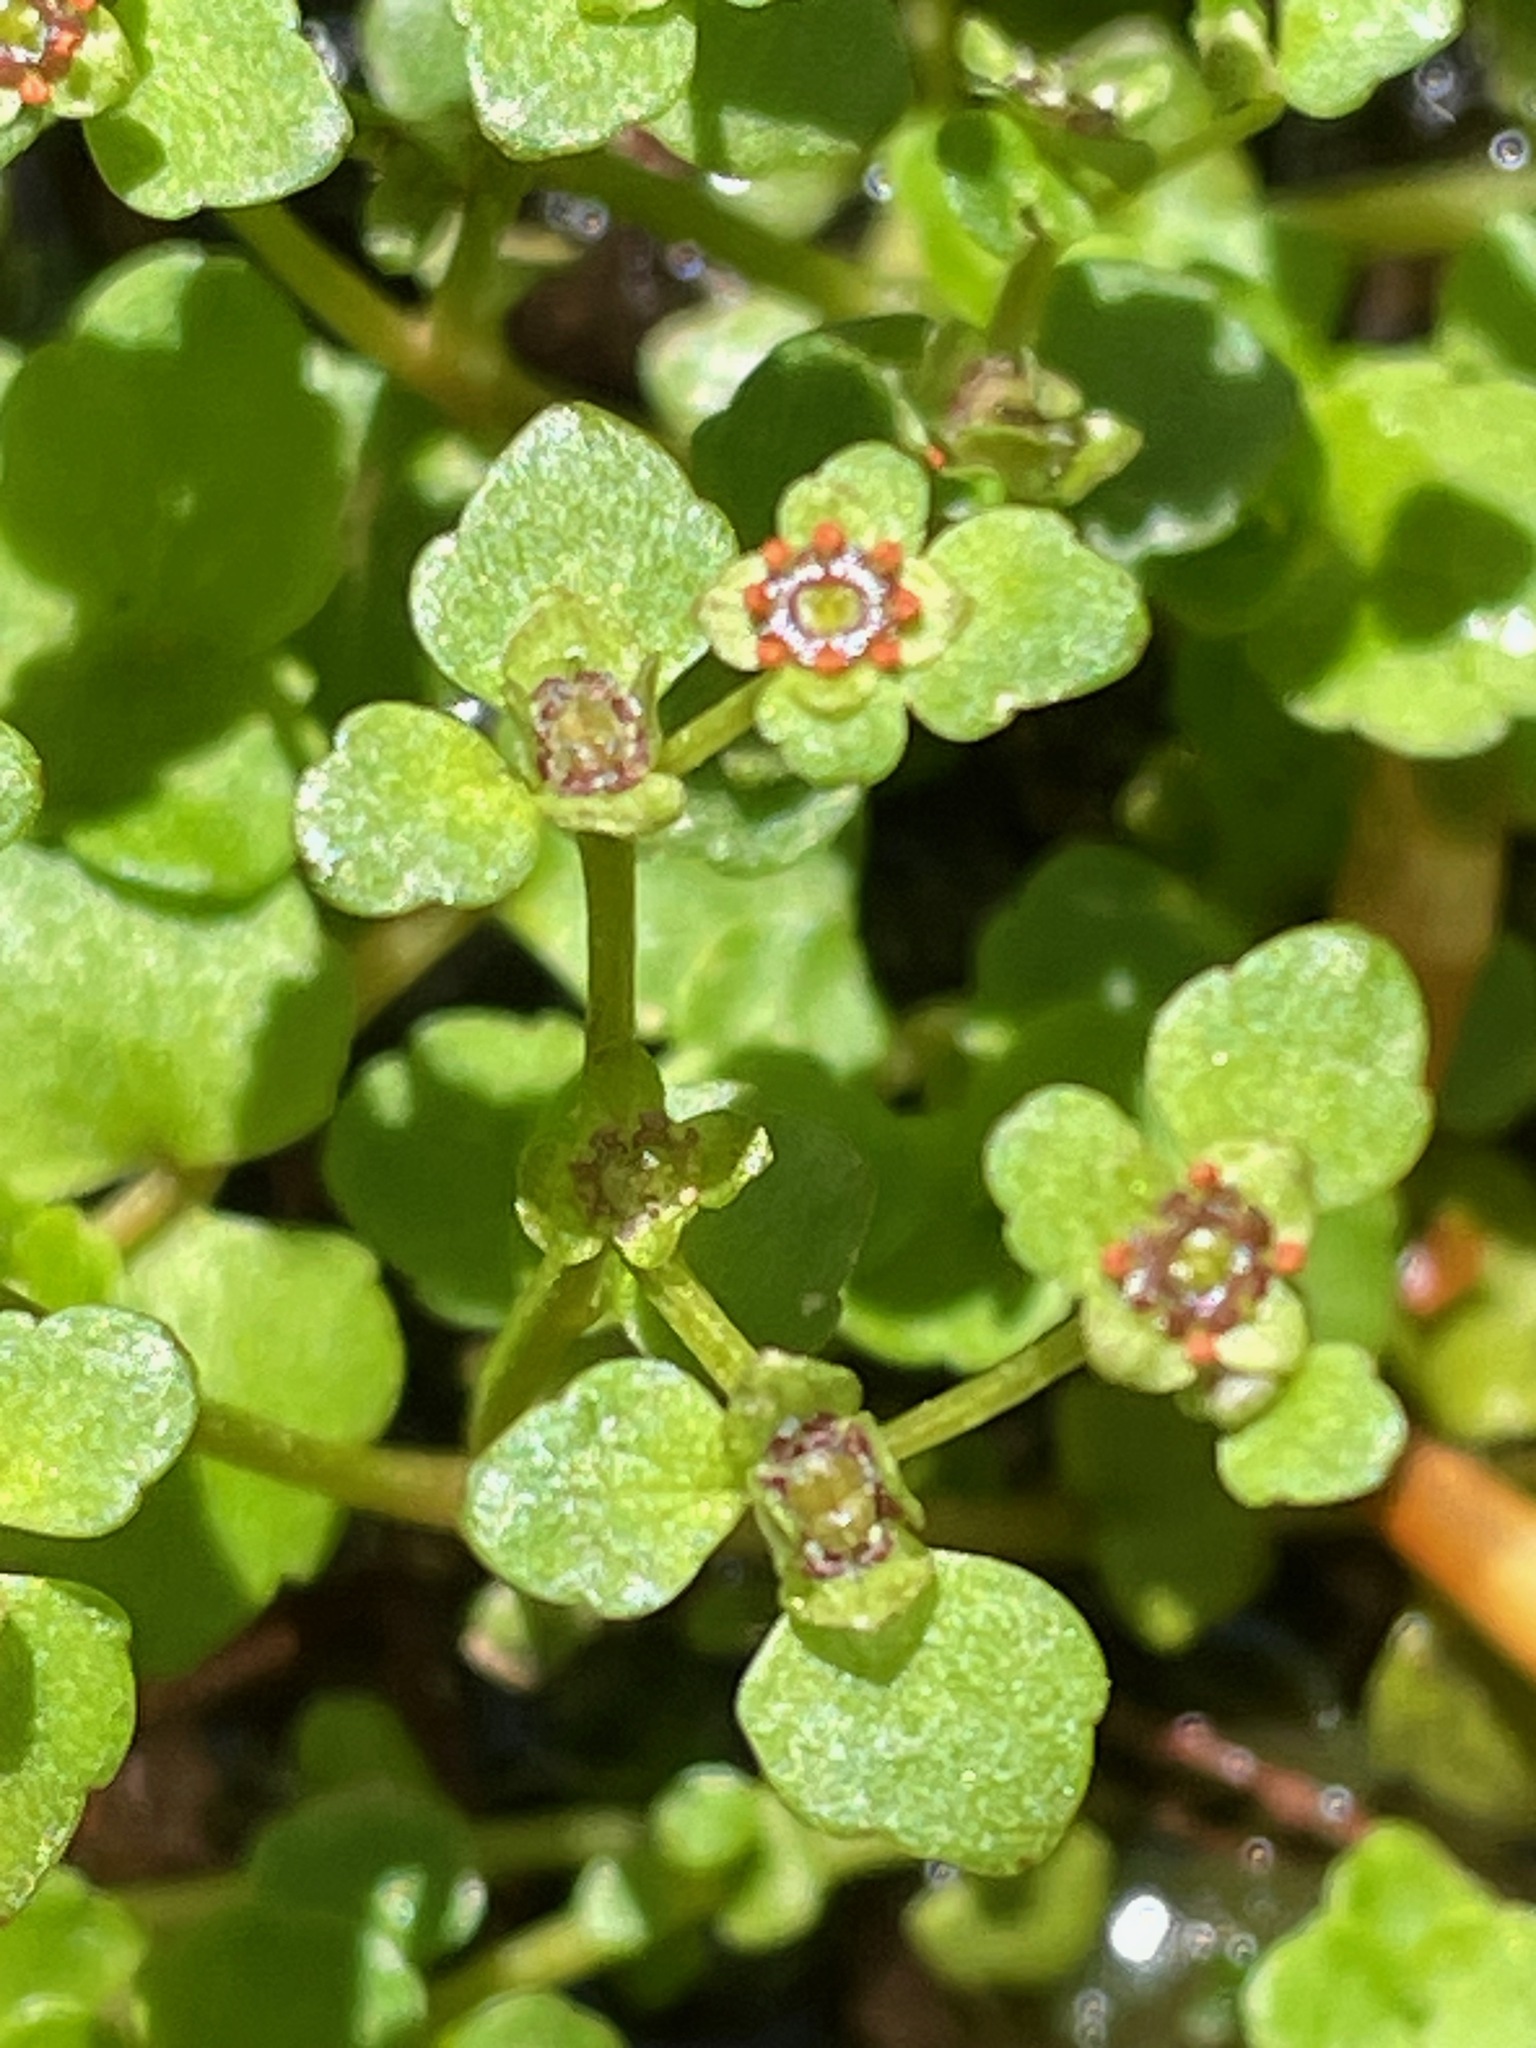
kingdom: Plantae
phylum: Tracheophyta
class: Magnoliopsida
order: Saxifragales
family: Saxifragaceae
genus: Chrysosplenium
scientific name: Chrysosplenium americanum
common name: American golden-saxifrage
